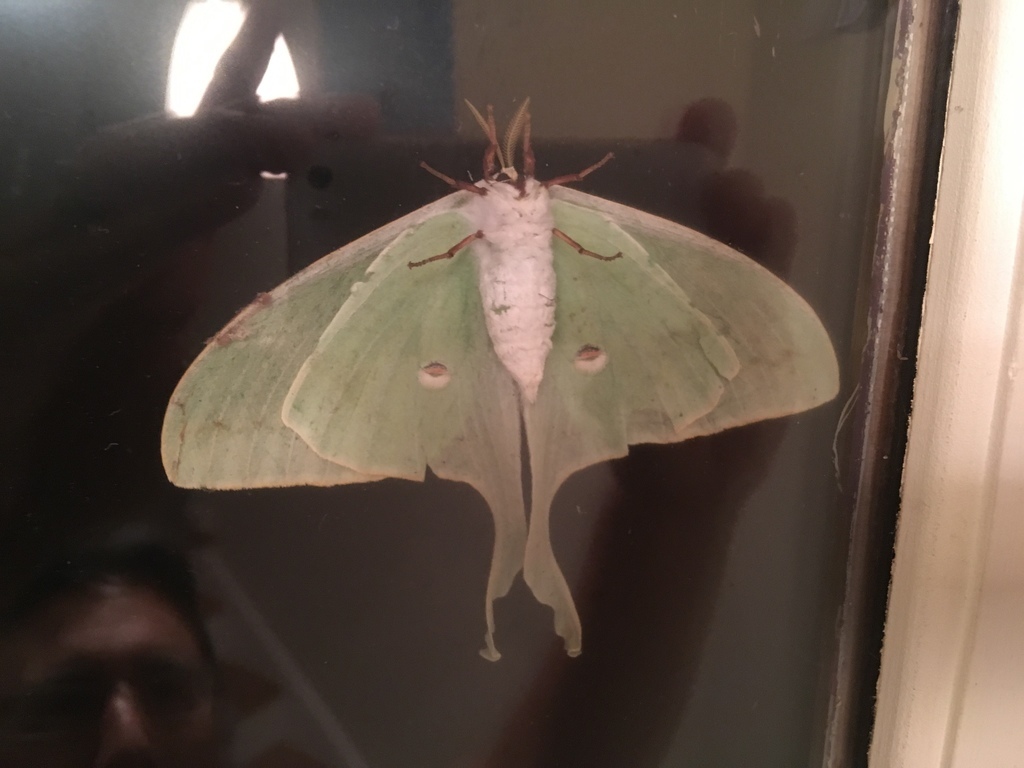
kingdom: Animalia
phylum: Arthropoda
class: Insecta
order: Lepidoptera
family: Saturniidae
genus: Actias
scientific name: Actias luna
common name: Luna moth
